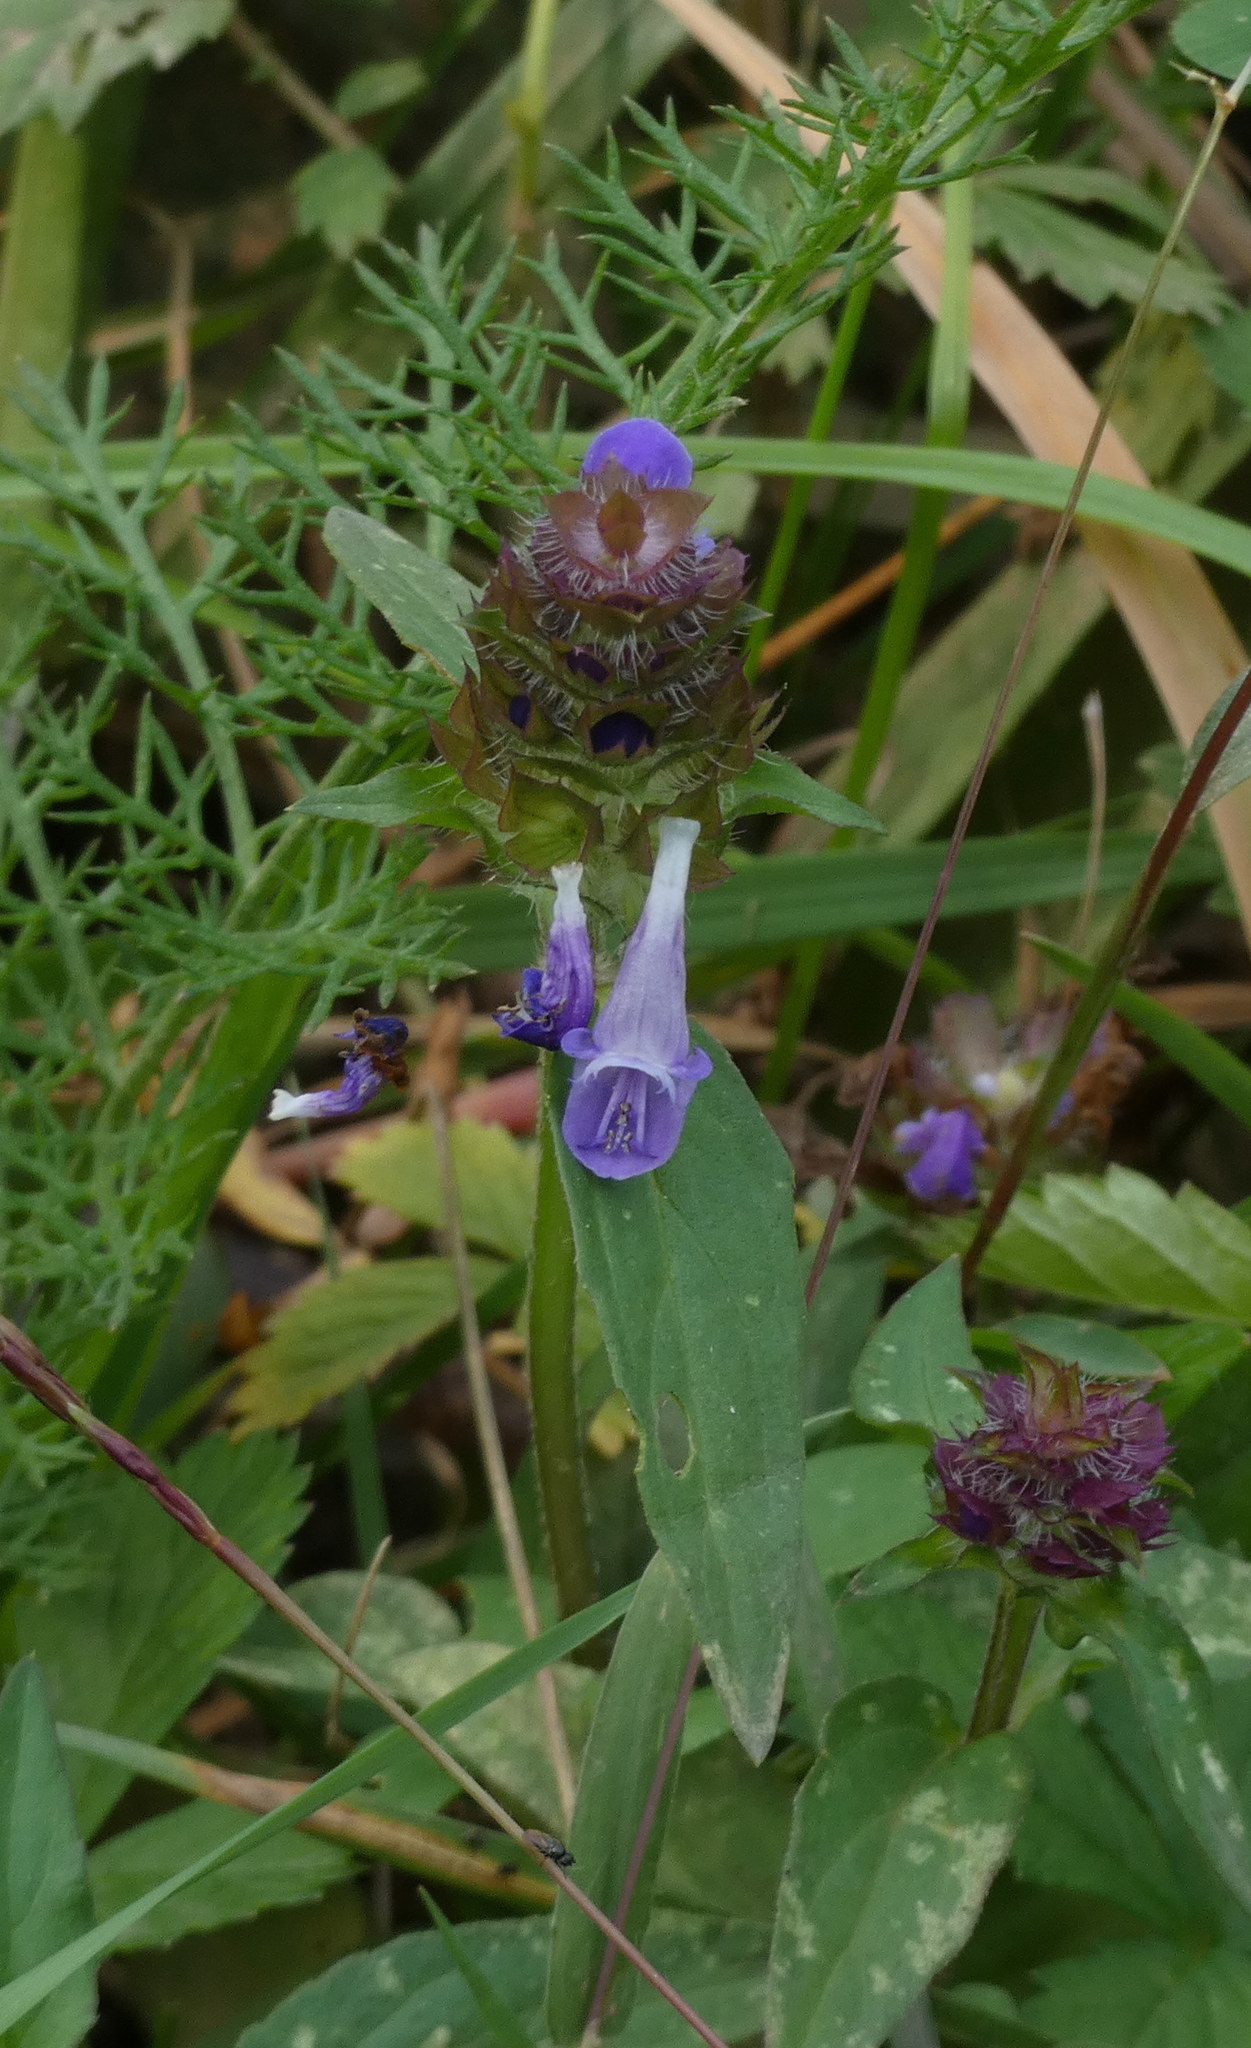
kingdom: Plantae
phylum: Tracheophyta
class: Magnoliopsida
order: Lamiales
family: Lamiaceae
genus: Prunella
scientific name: Prunella vulgaris
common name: Heal-all
